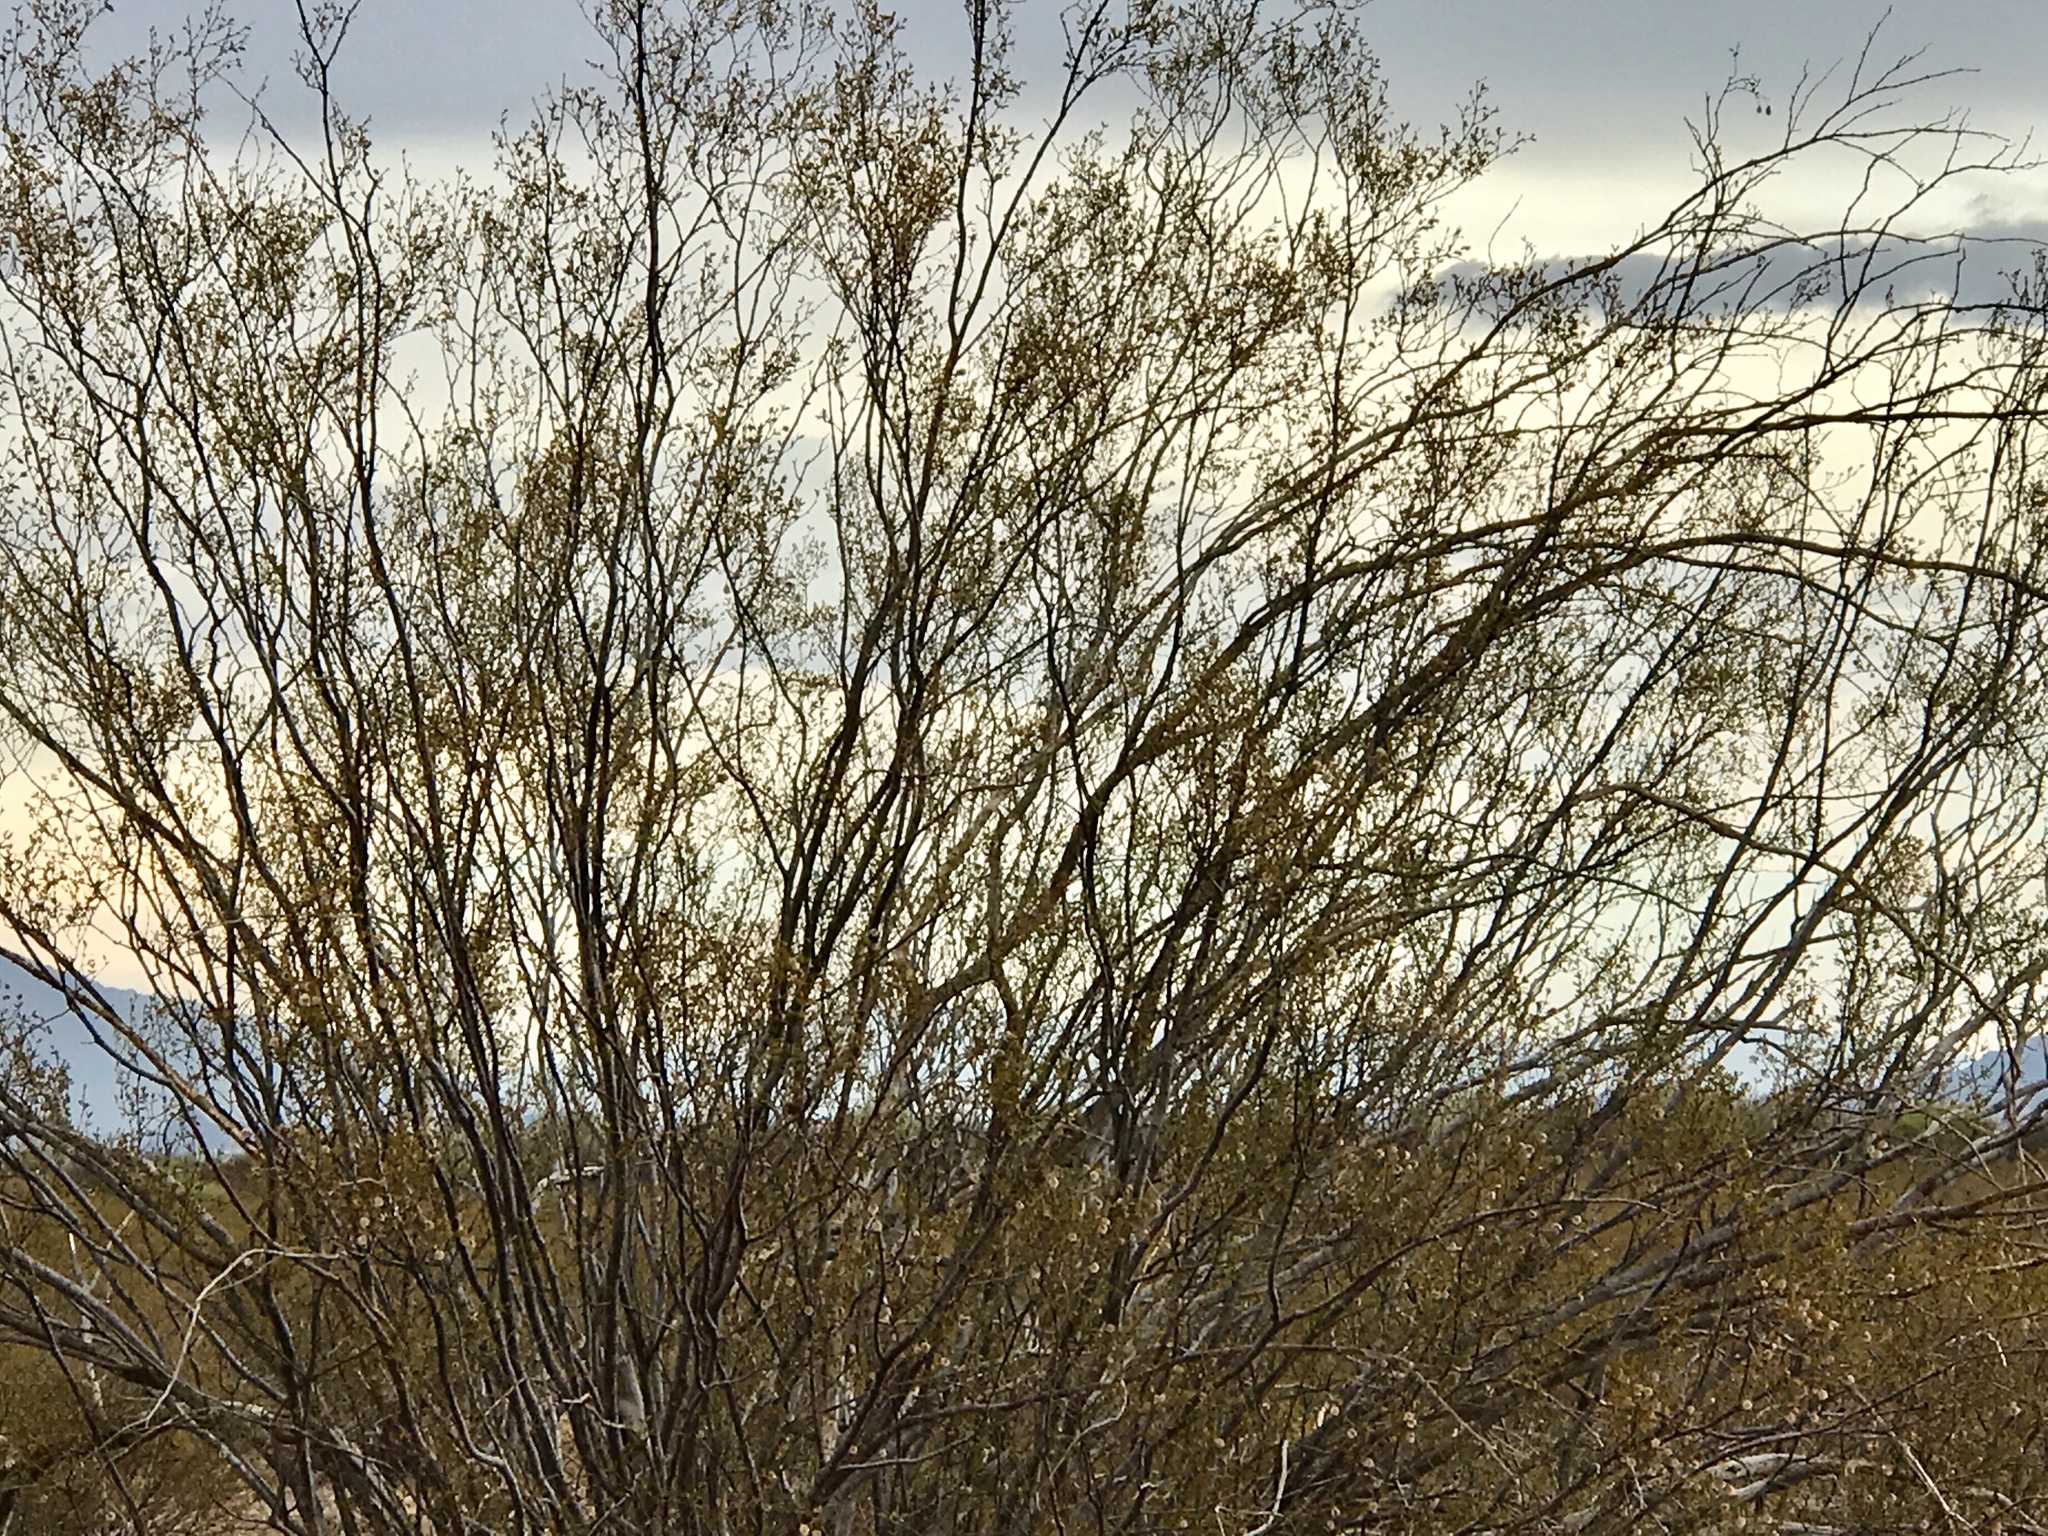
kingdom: Plantae
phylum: Tracheophyta
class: Magnoliopsida
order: Zygophyllales
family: Zygophyllaceae
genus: Larrea
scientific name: Larrea tridentata
